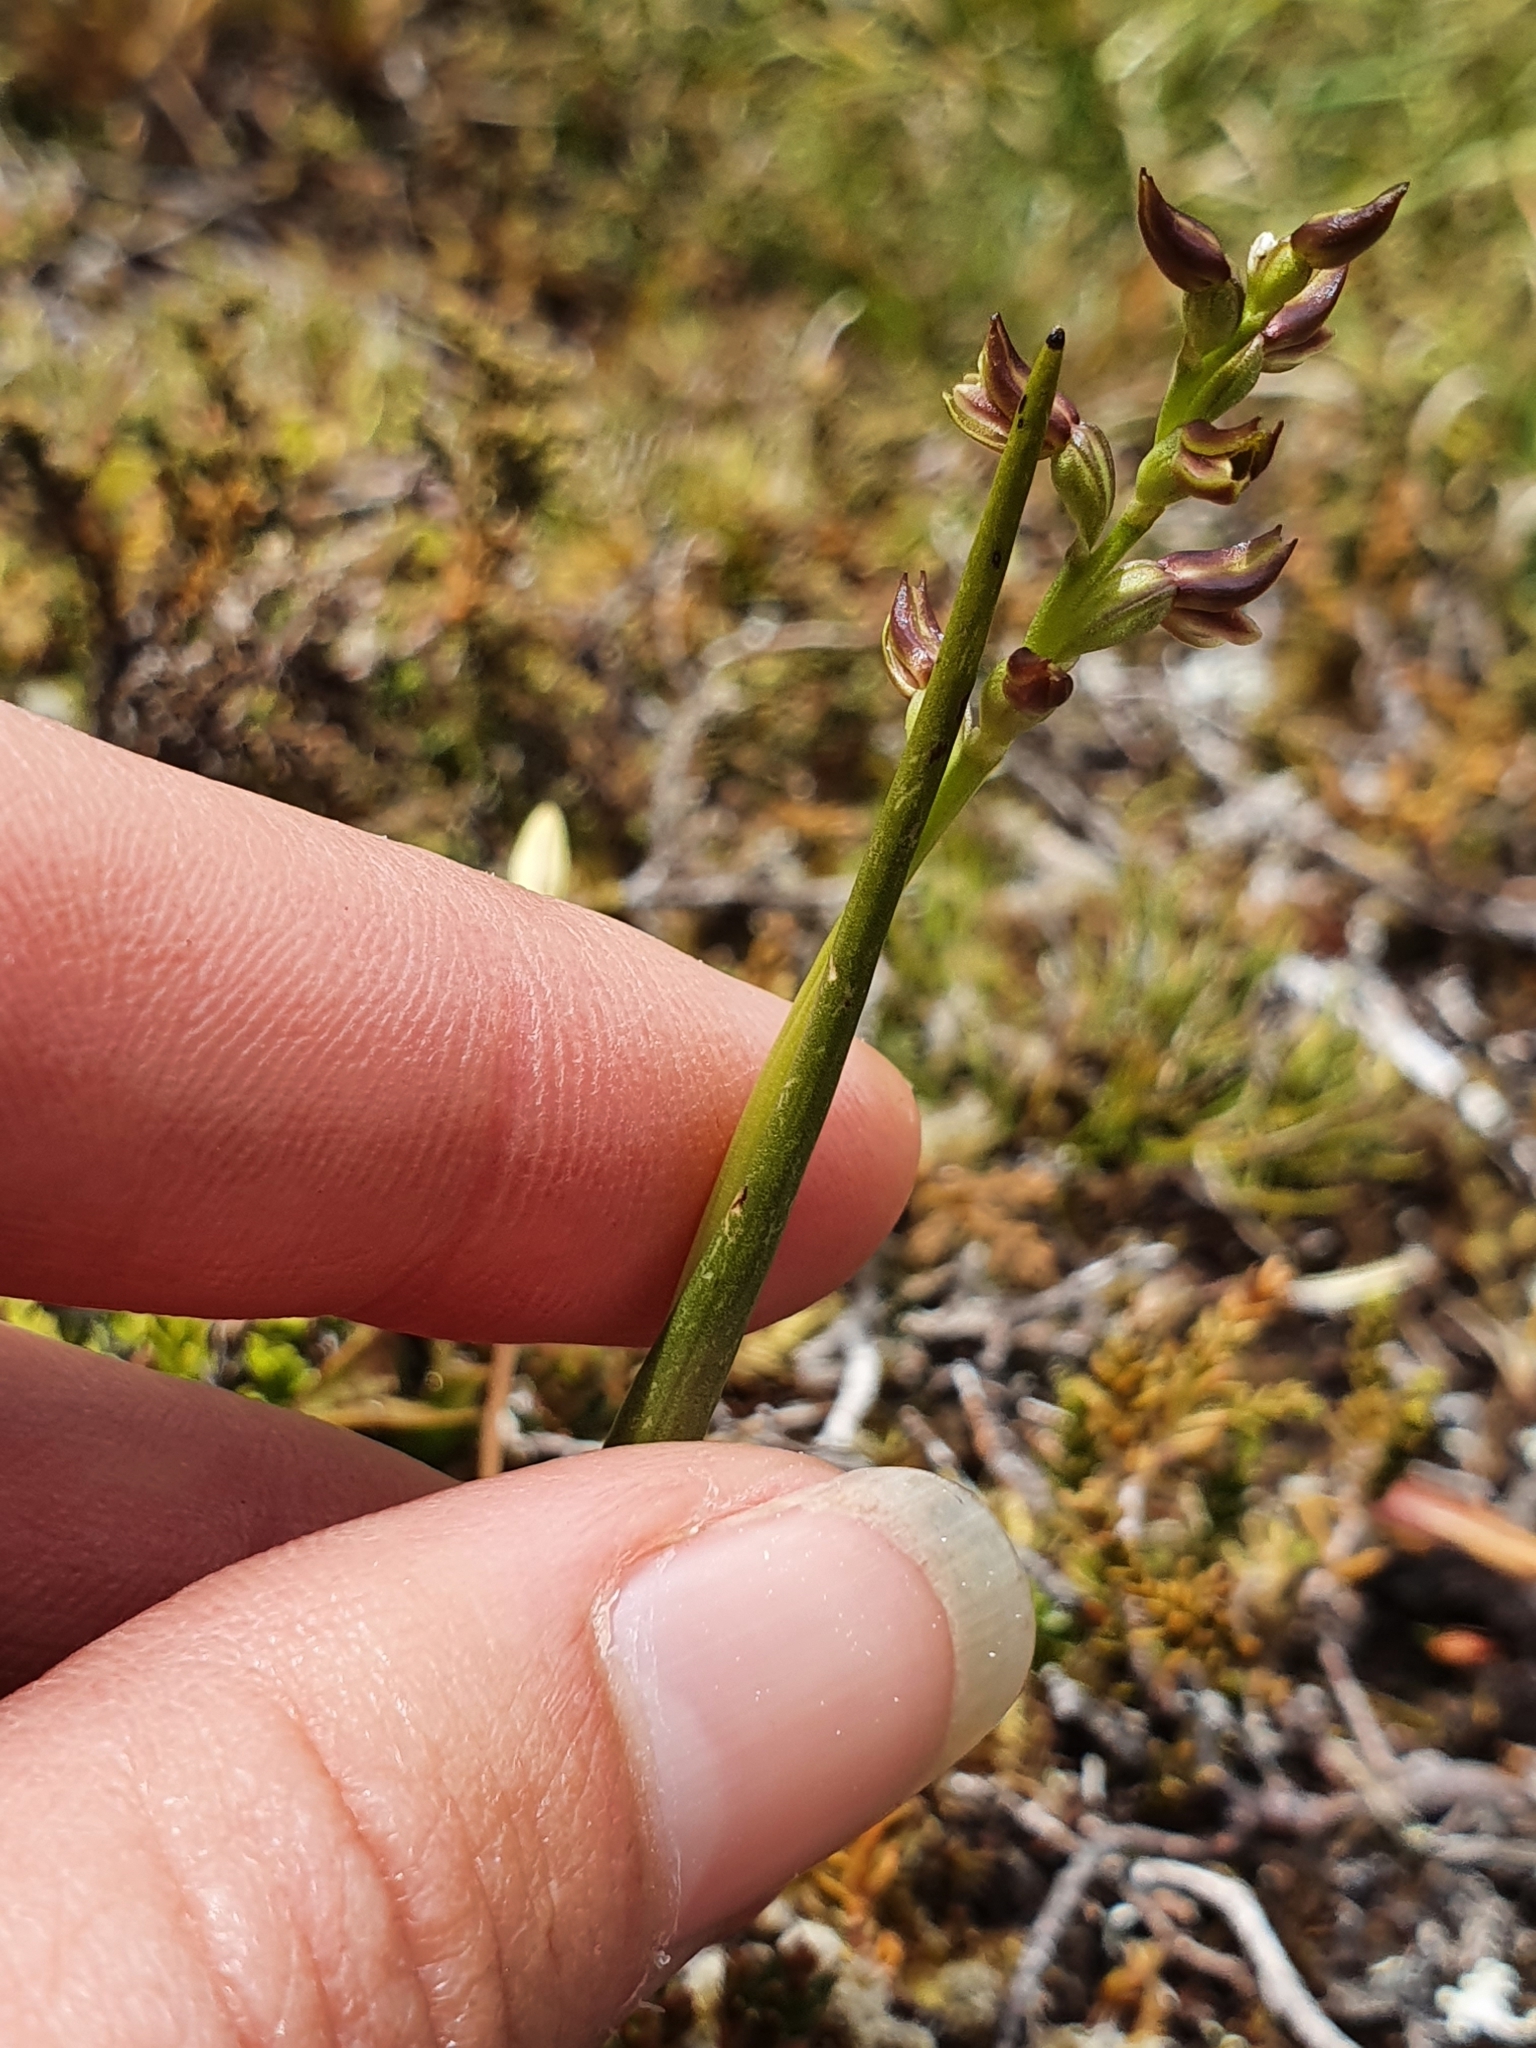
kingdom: Plantae
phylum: Tracheophyta
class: Liliopsida
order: Asparagales
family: Orchidaceae
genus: Prasophyllum
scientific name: Prasophyllum colensoi
